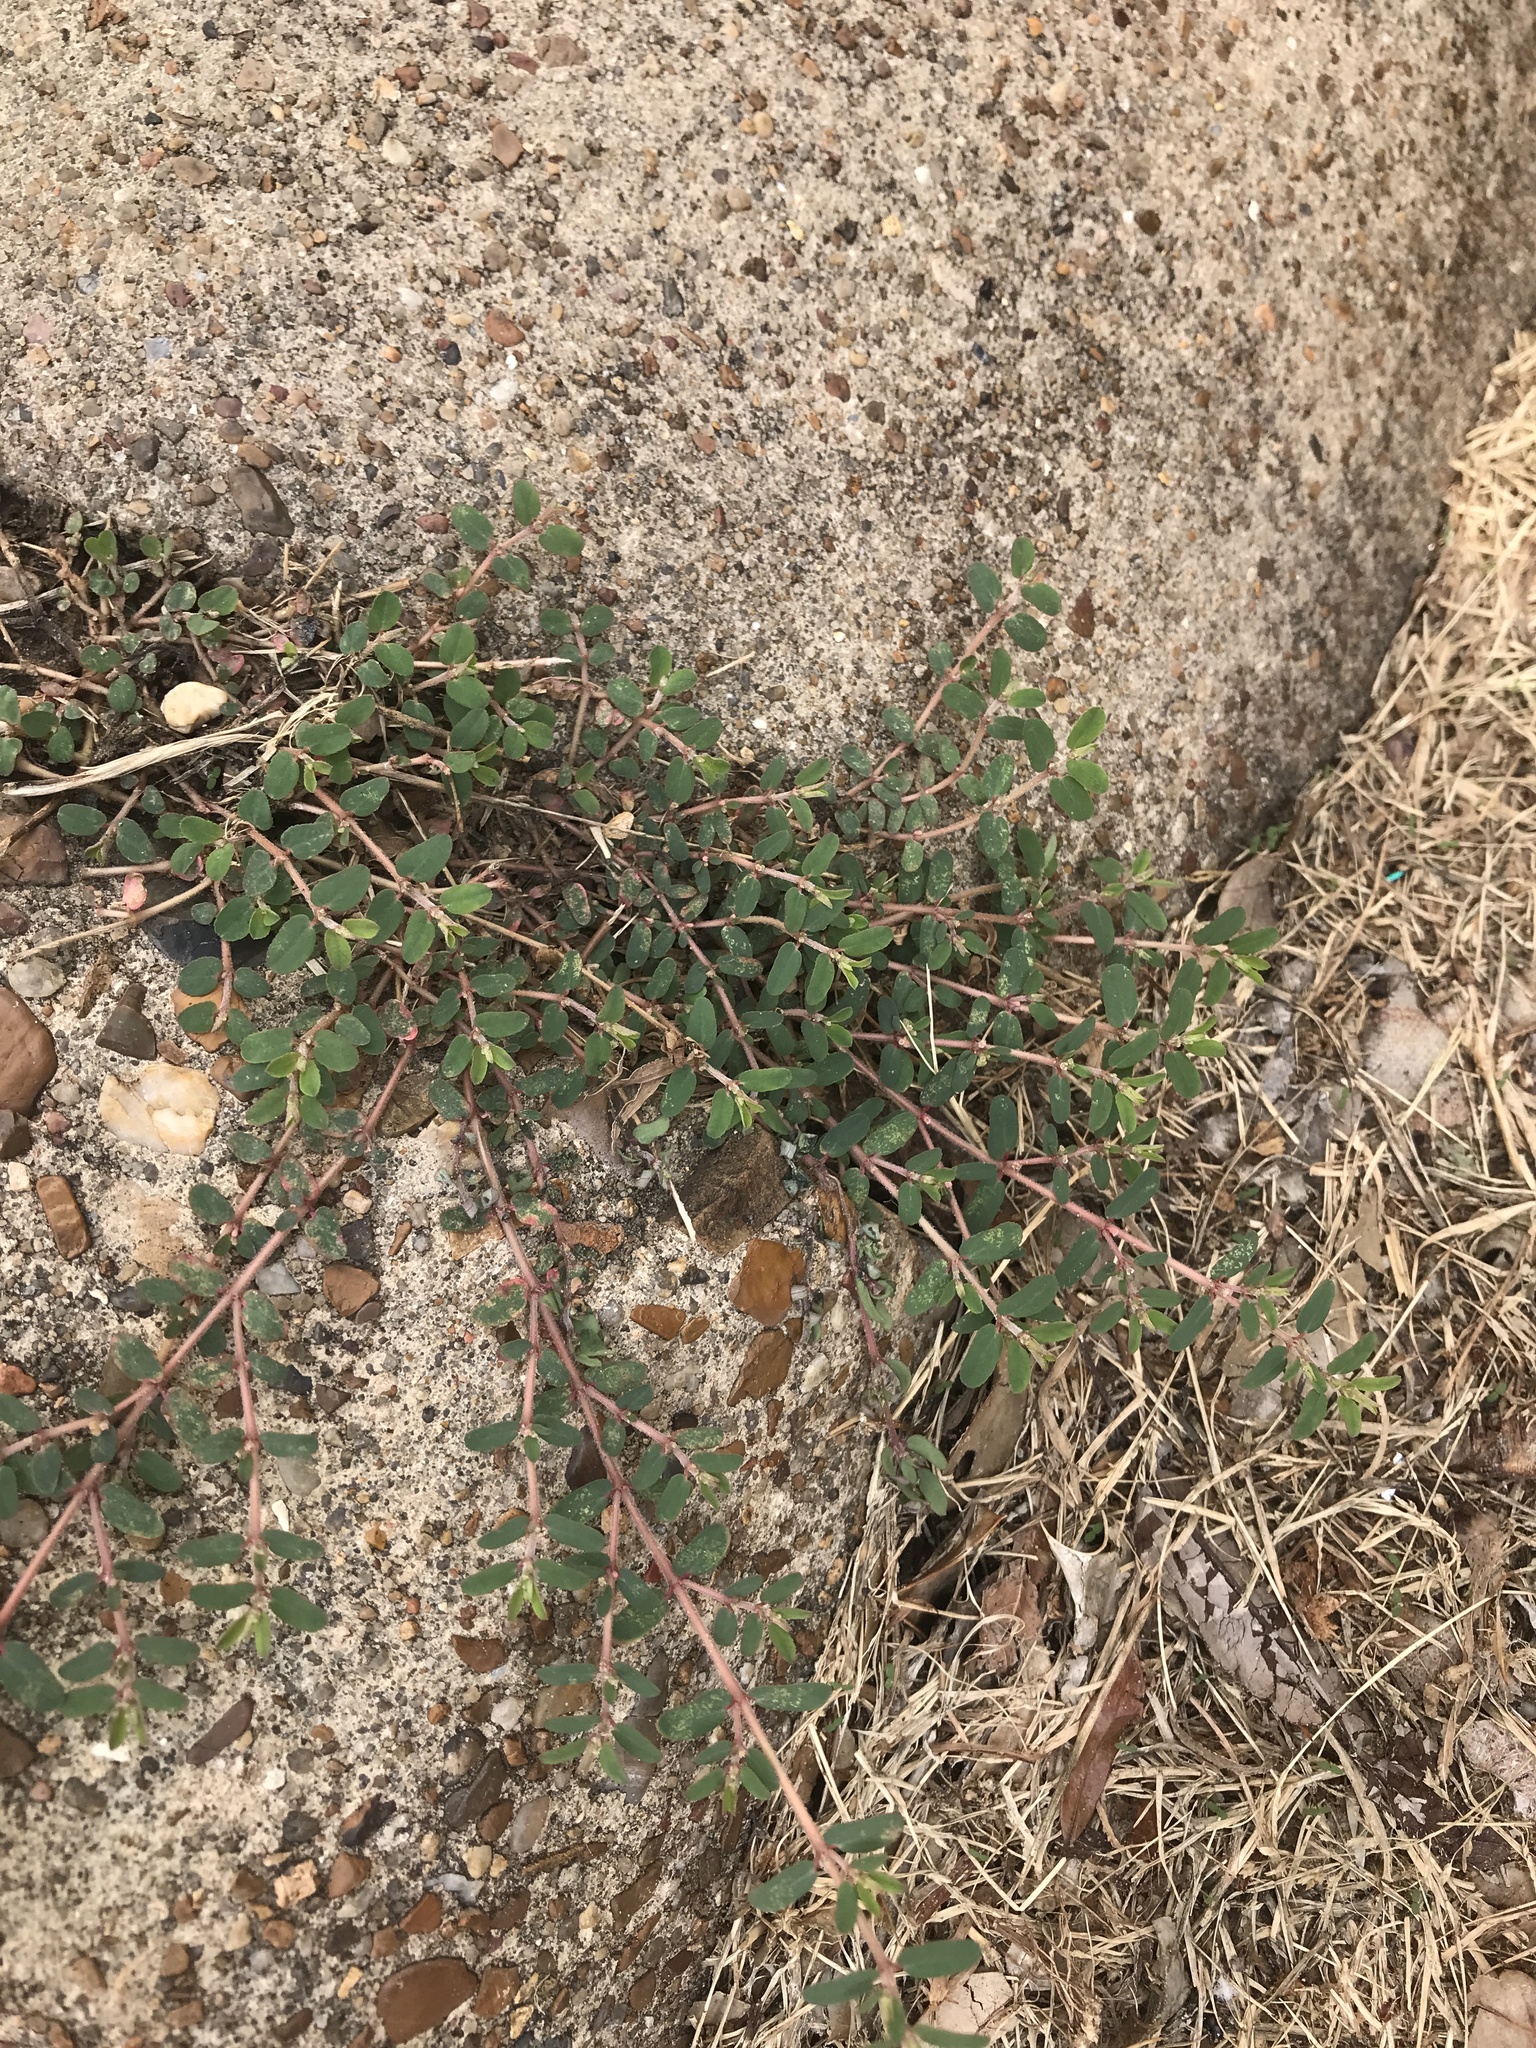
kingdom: Plantae
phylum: Tracheophyta
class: Magnoliopsida
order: Malpighiales
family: Euphorbiaceae
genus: Euphorbia
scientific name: Euphorbia maculata
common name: Spotted spurge
